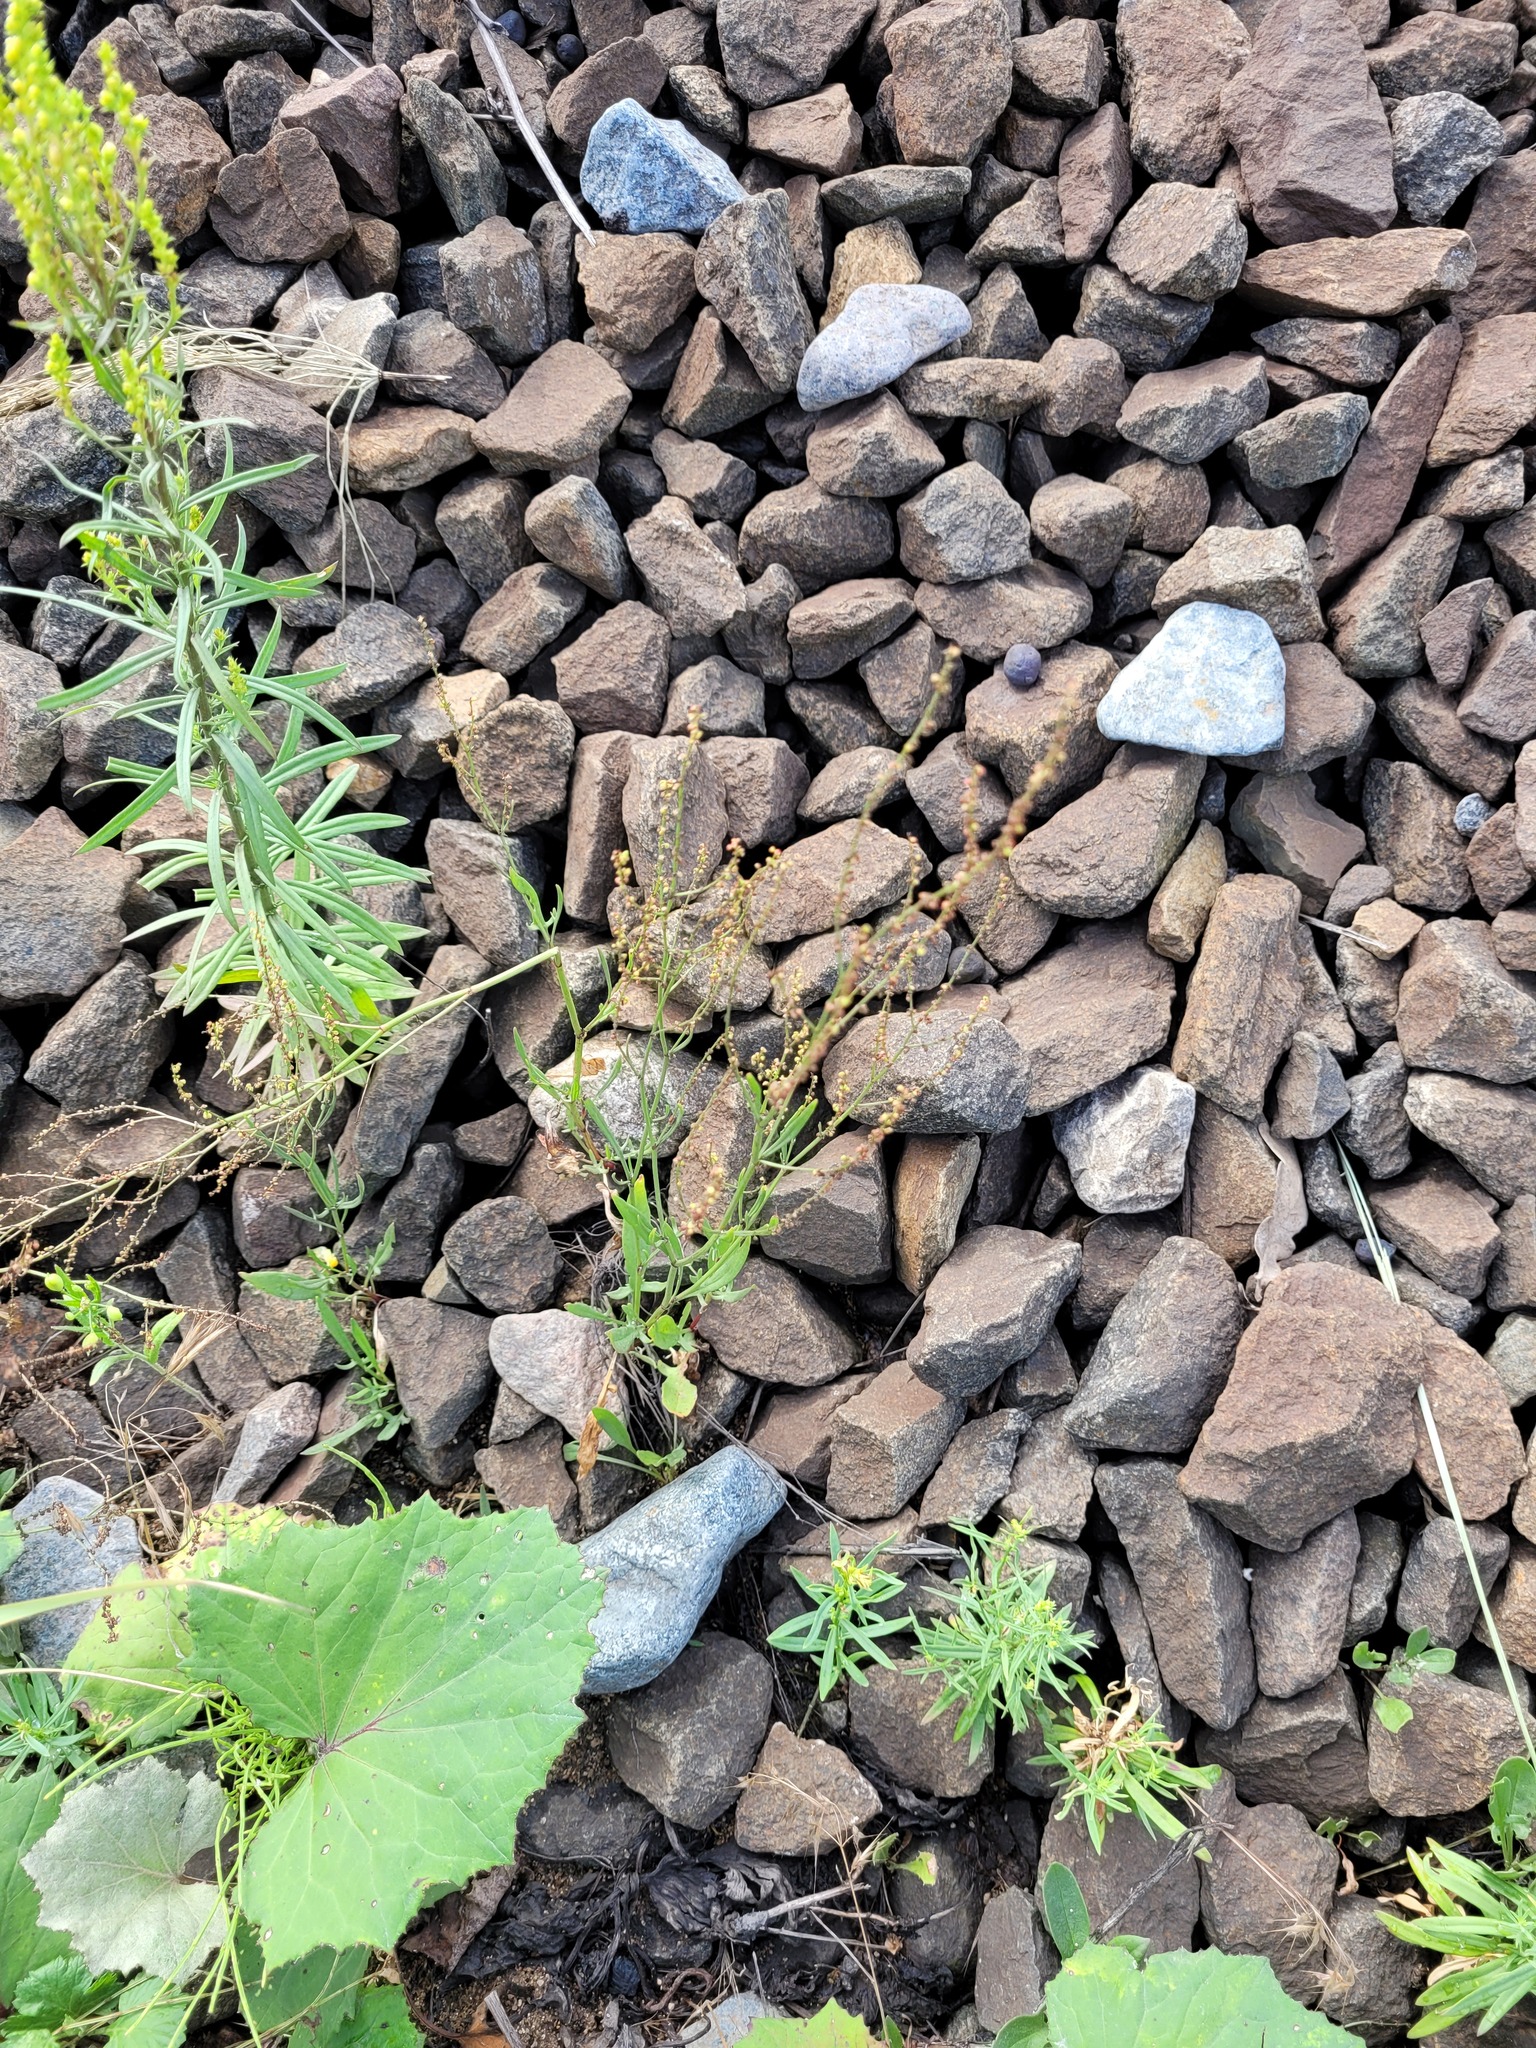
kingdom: Plantae
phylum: Tracheophyta
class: Magnoliopsida
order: Caryophyllales
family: Polygonaceae
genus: Rumex
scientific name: Rumex acetosella
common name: Common sheep sorrel
